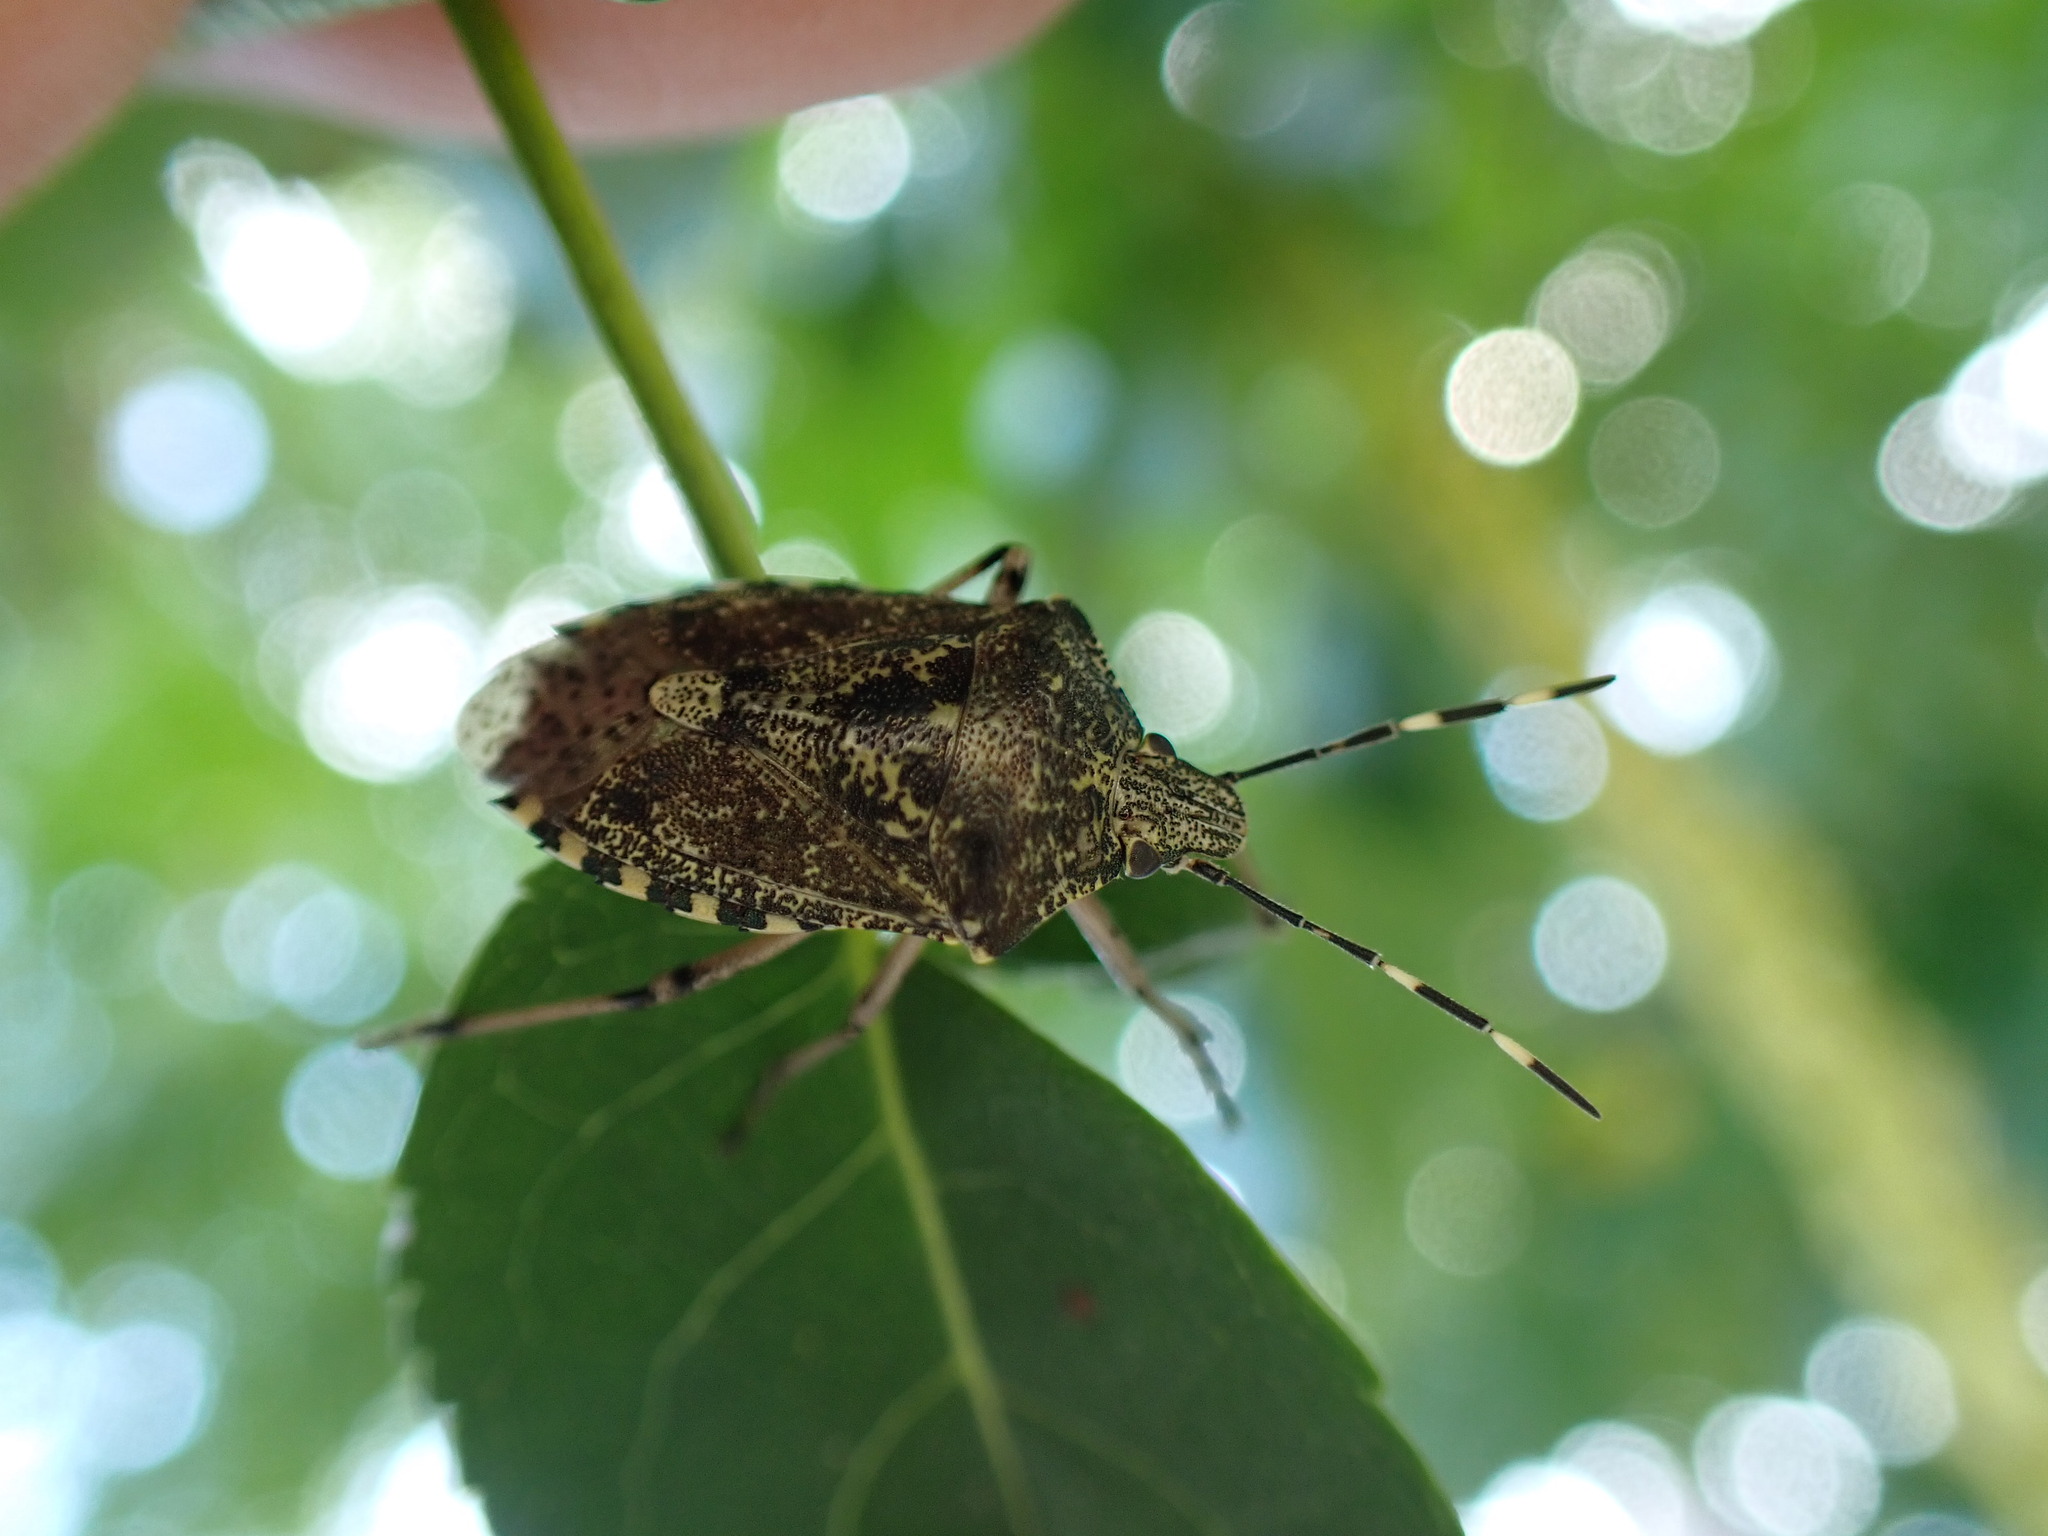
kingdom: Animalia
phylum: Arthropoda
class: Insecta
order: Hemiptera
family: Pentatomidae
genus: Rhaphigaster
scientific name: Rhaphigaster nebulosa
